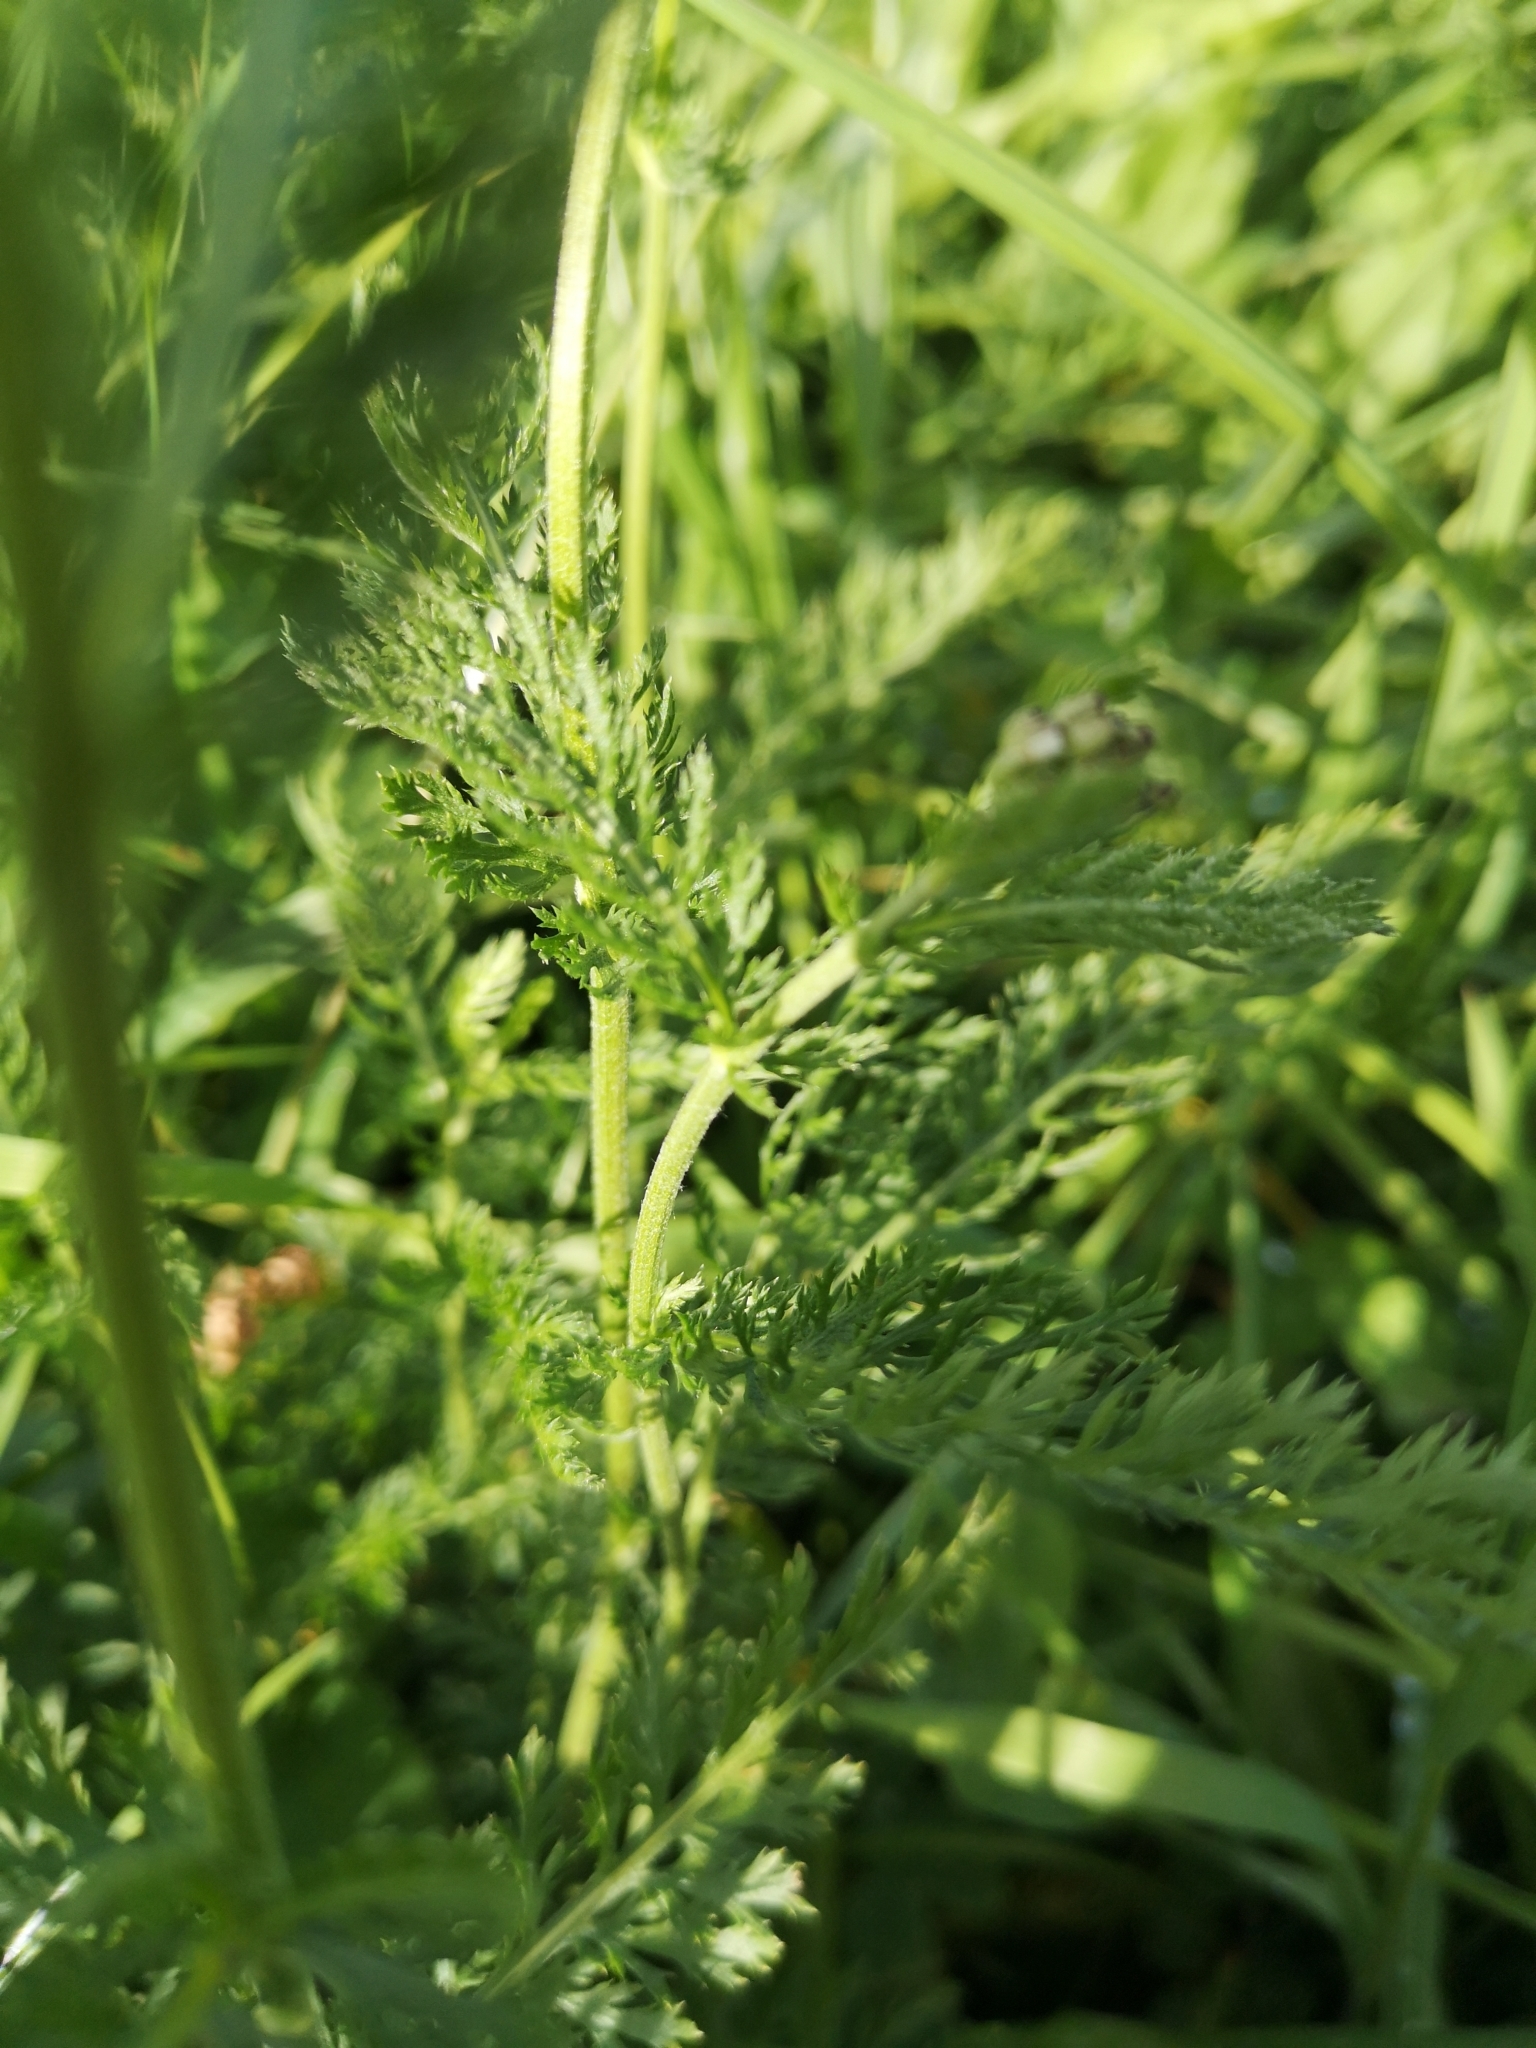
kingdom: Plantae
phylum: Tracheophyta
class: Magnoliopsida
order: Asterales
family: Asteraceae
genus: Achillea
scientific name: Achillea millefolium
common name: Yarrow
